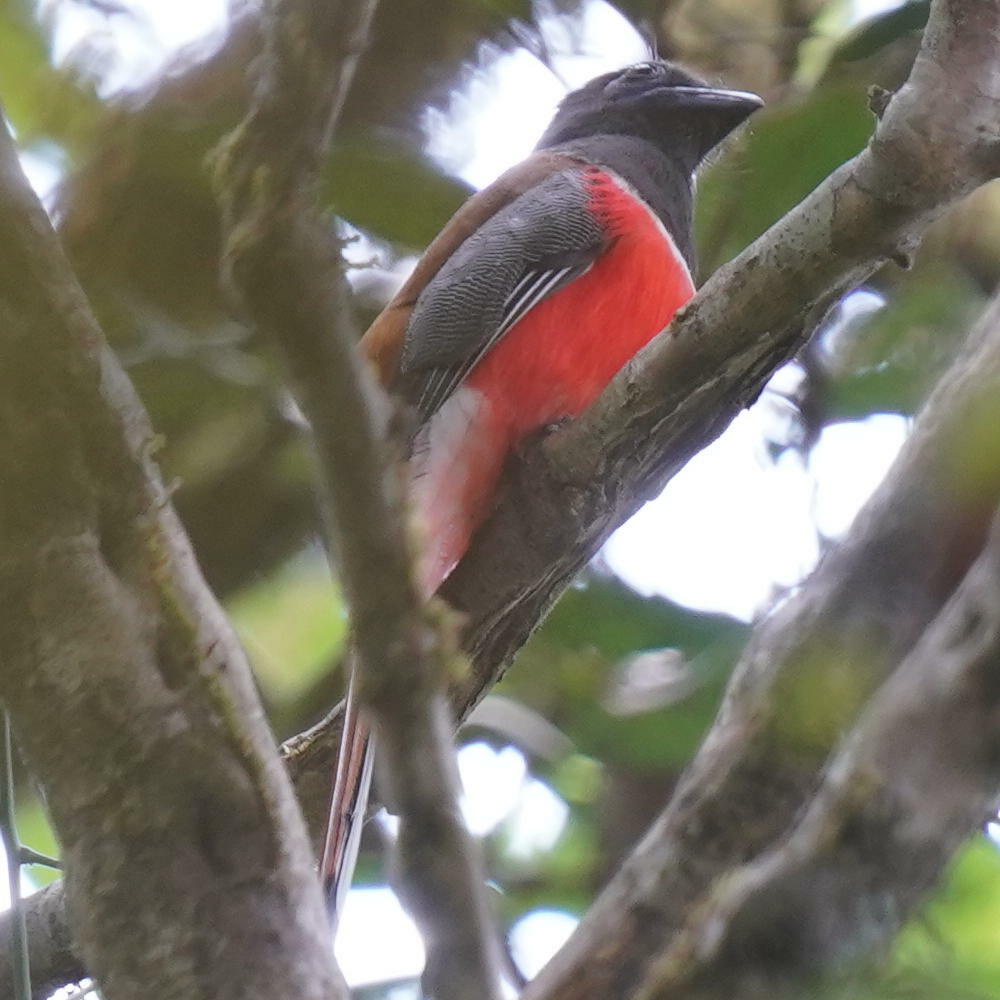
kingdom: Animalia
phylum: Chordata
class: Aves
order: Trogoniformes
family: Trogonidae
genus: Harpactes
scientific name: Harpactes fasciatus
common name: Malabar trogon
